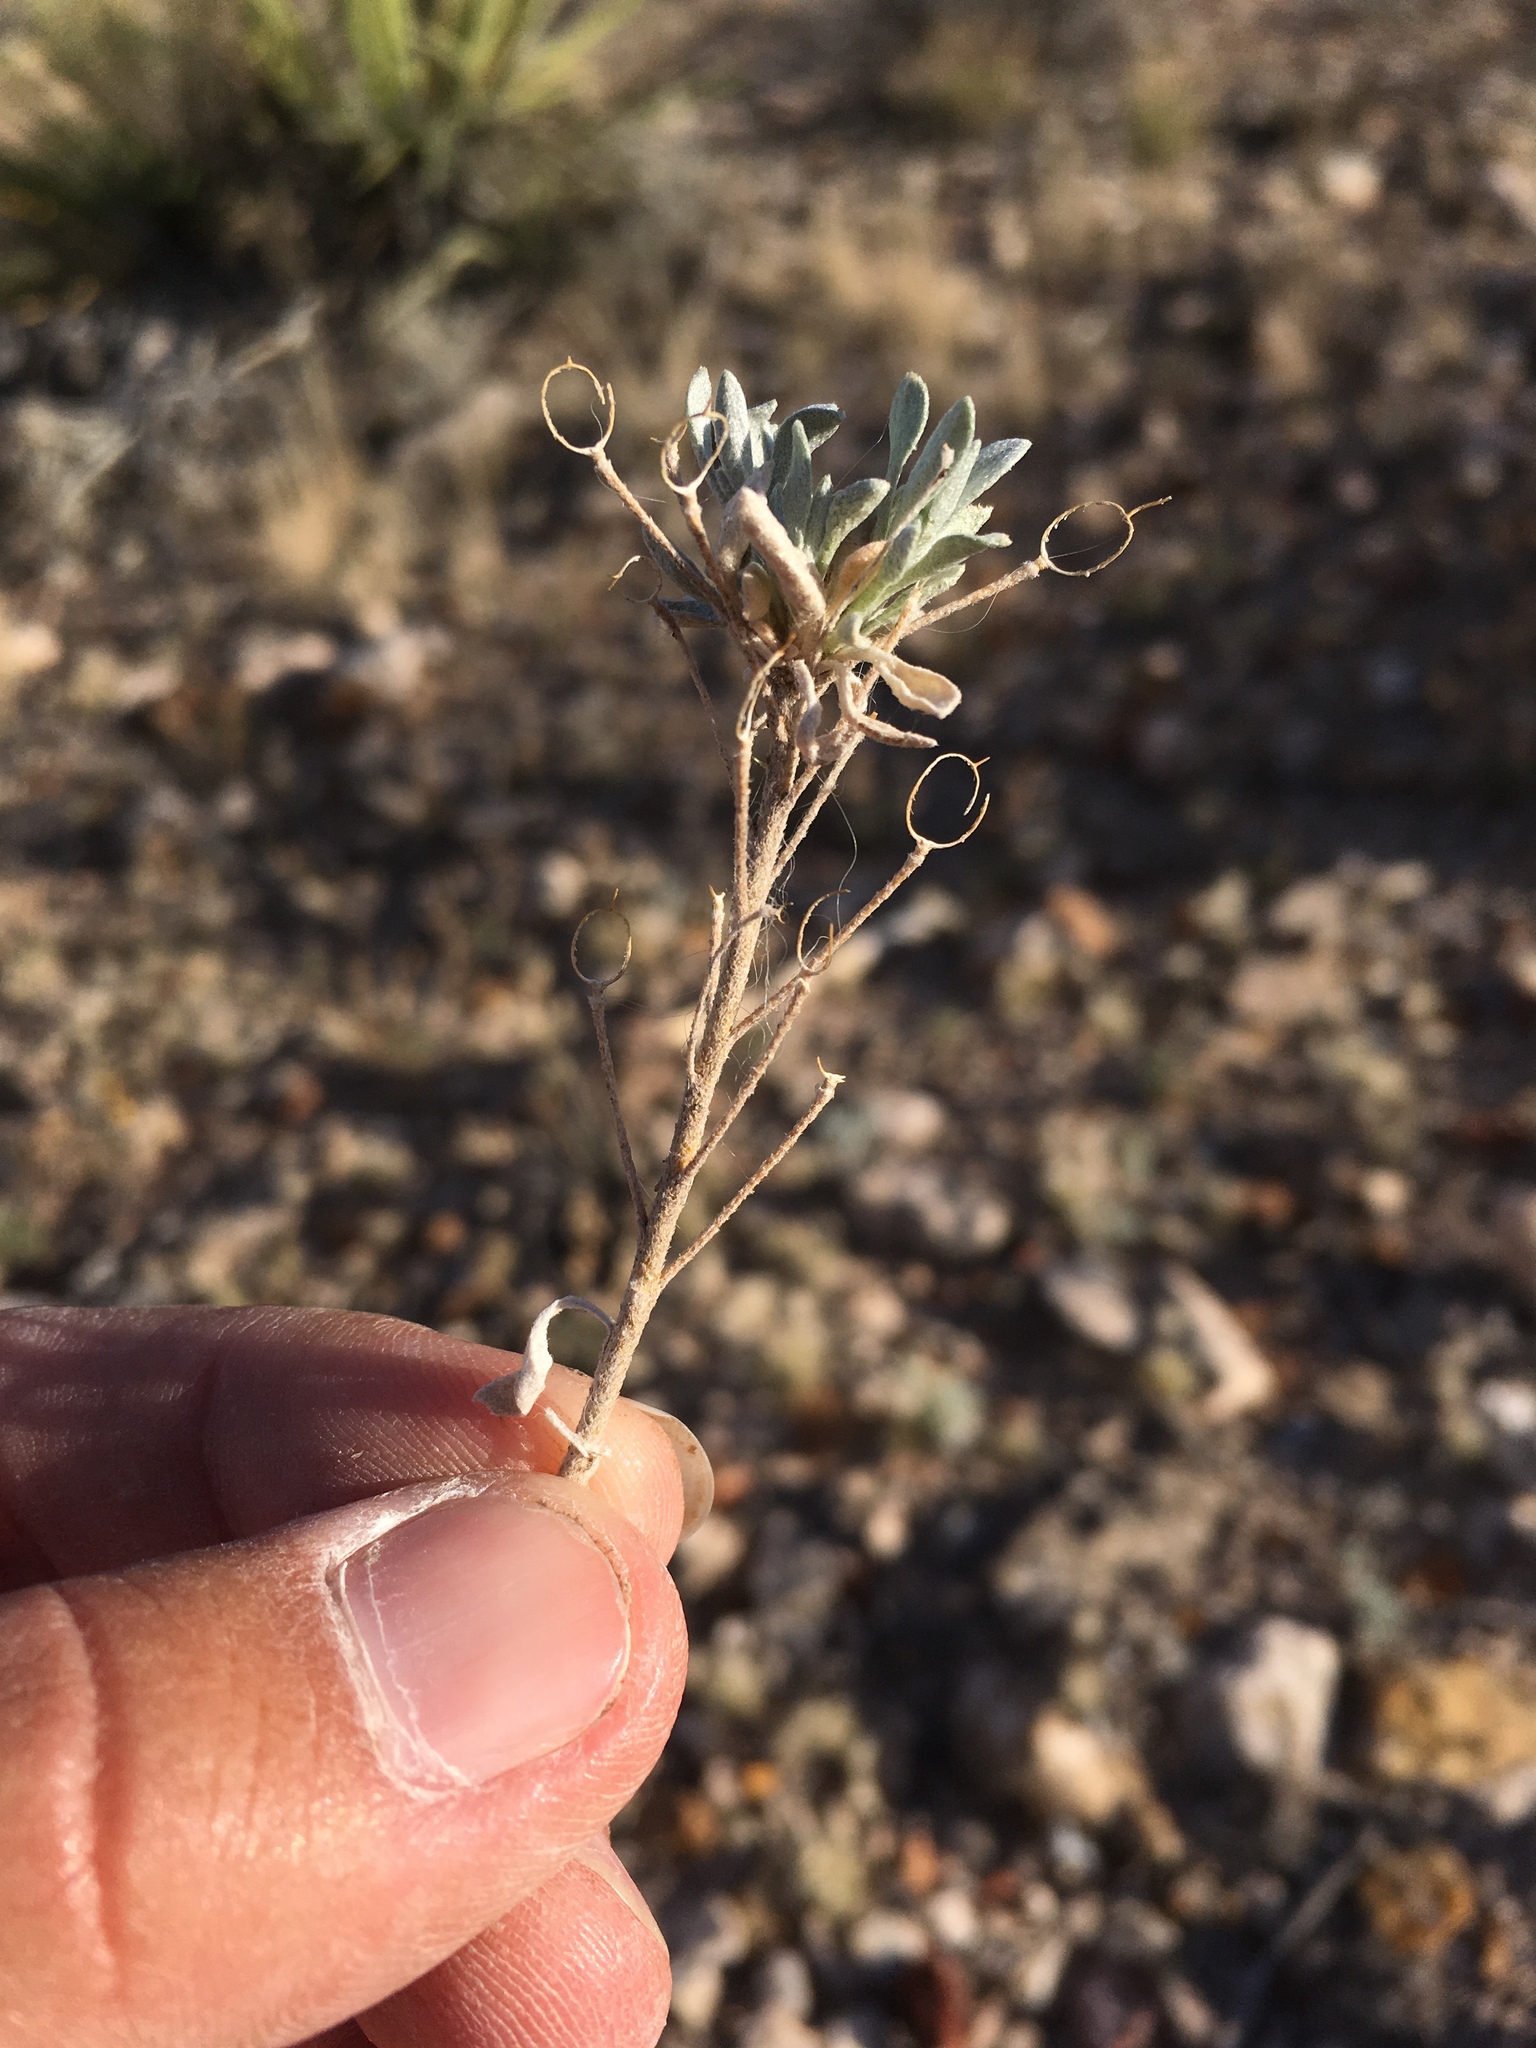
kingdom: Plantae
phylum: Tracheophyta
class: Magnoliopsida
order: Brassicales
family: Brassicaceae
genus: Physaria
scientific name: Physaria fendleri
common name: Fendler's bladderpod
